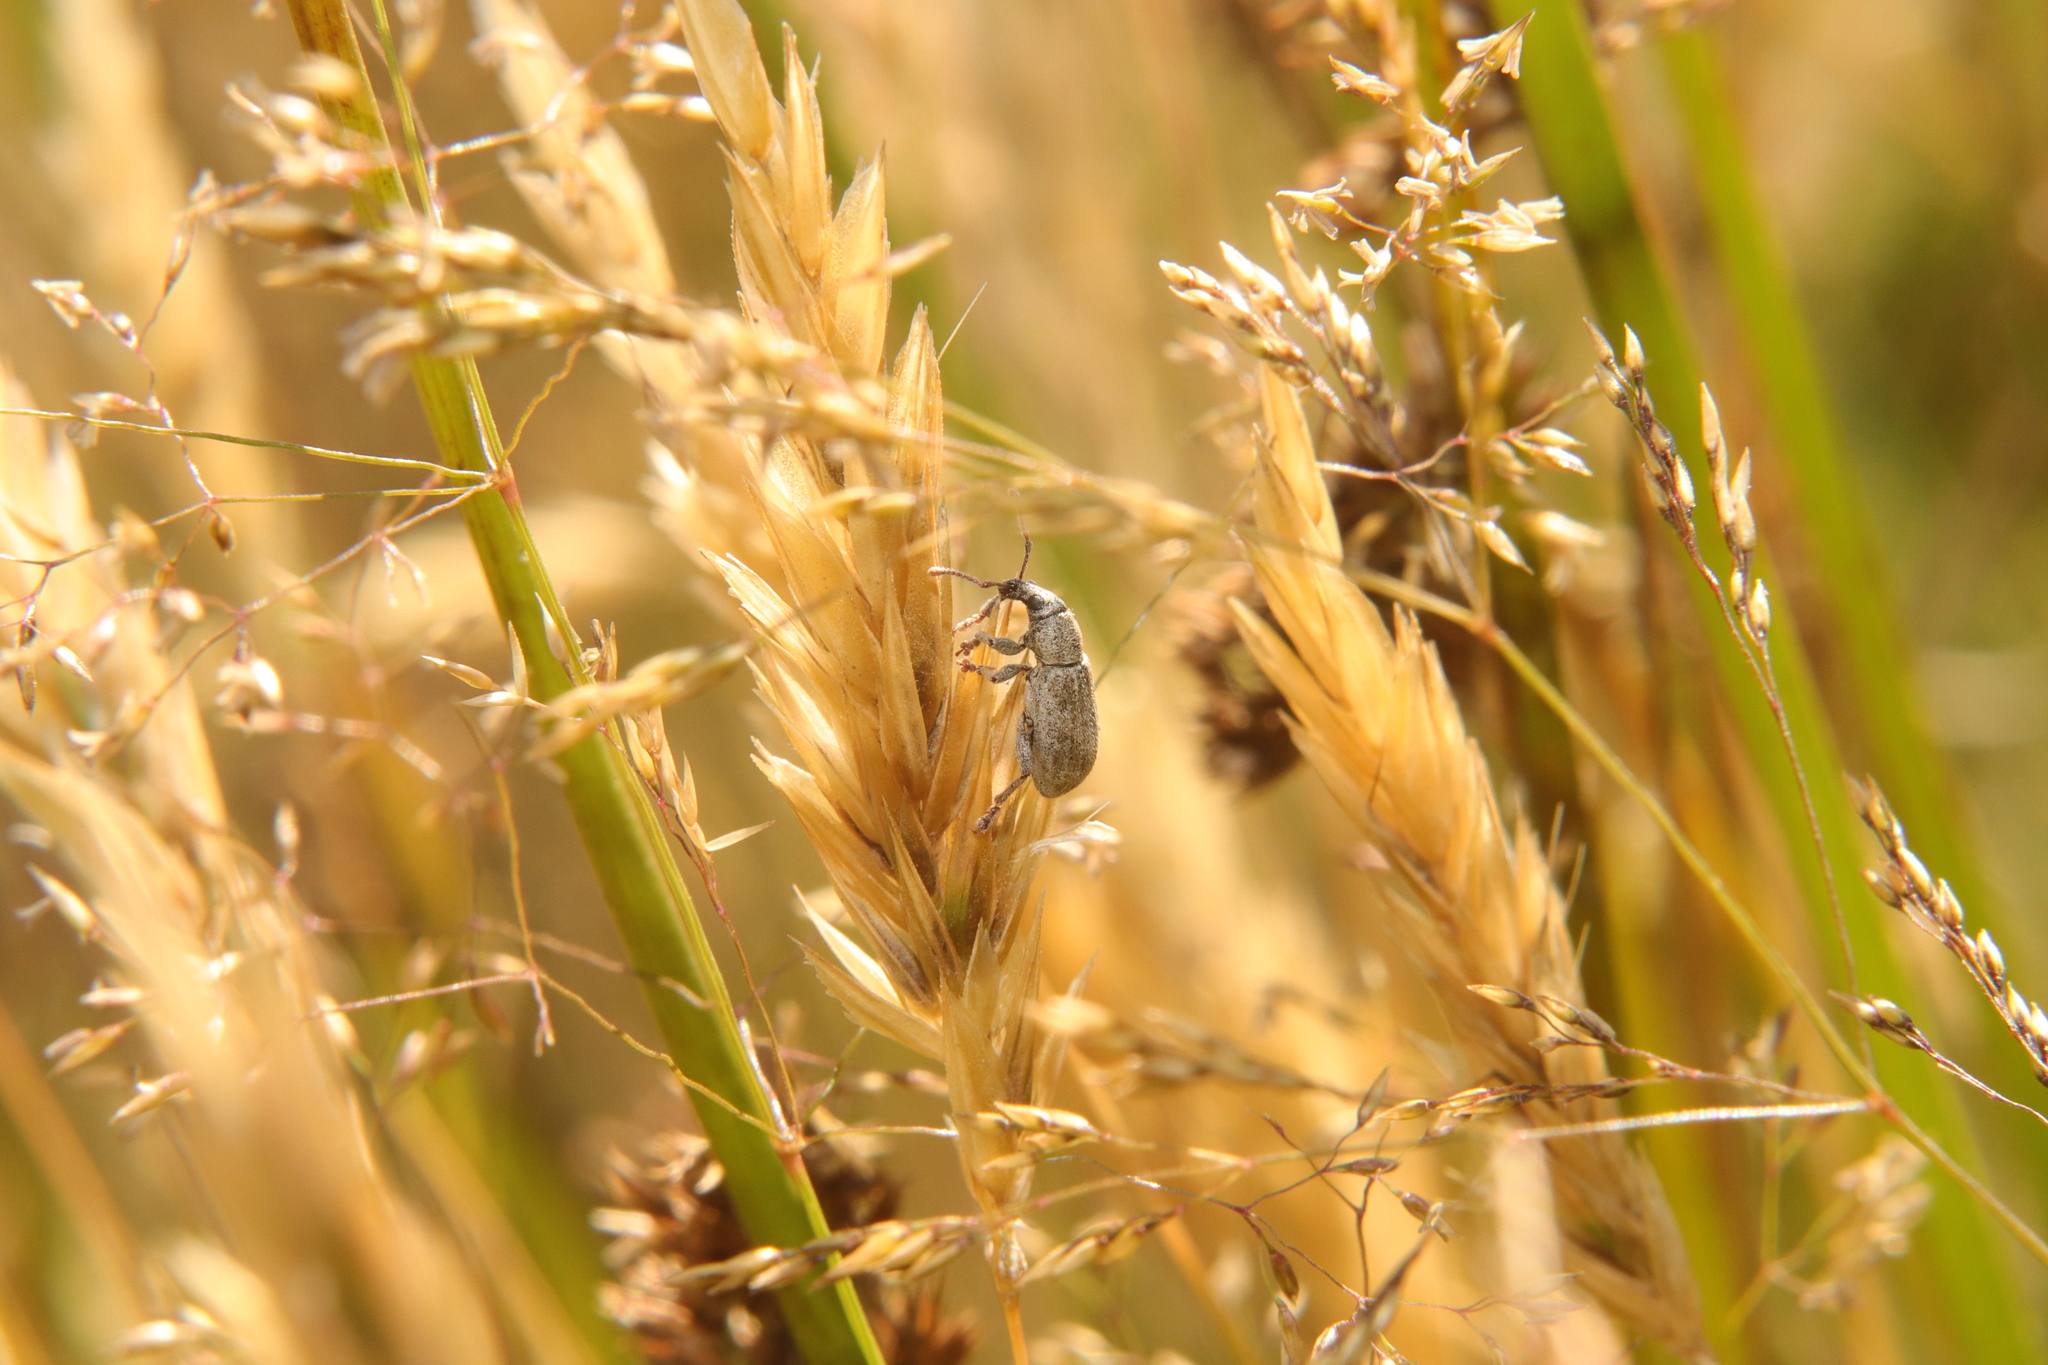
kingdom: Animalia
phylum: Arthropoda
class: Insecta
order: Coleoptera
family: Curculionidae
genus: Nonnotus
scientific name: Nonnotus albicans
